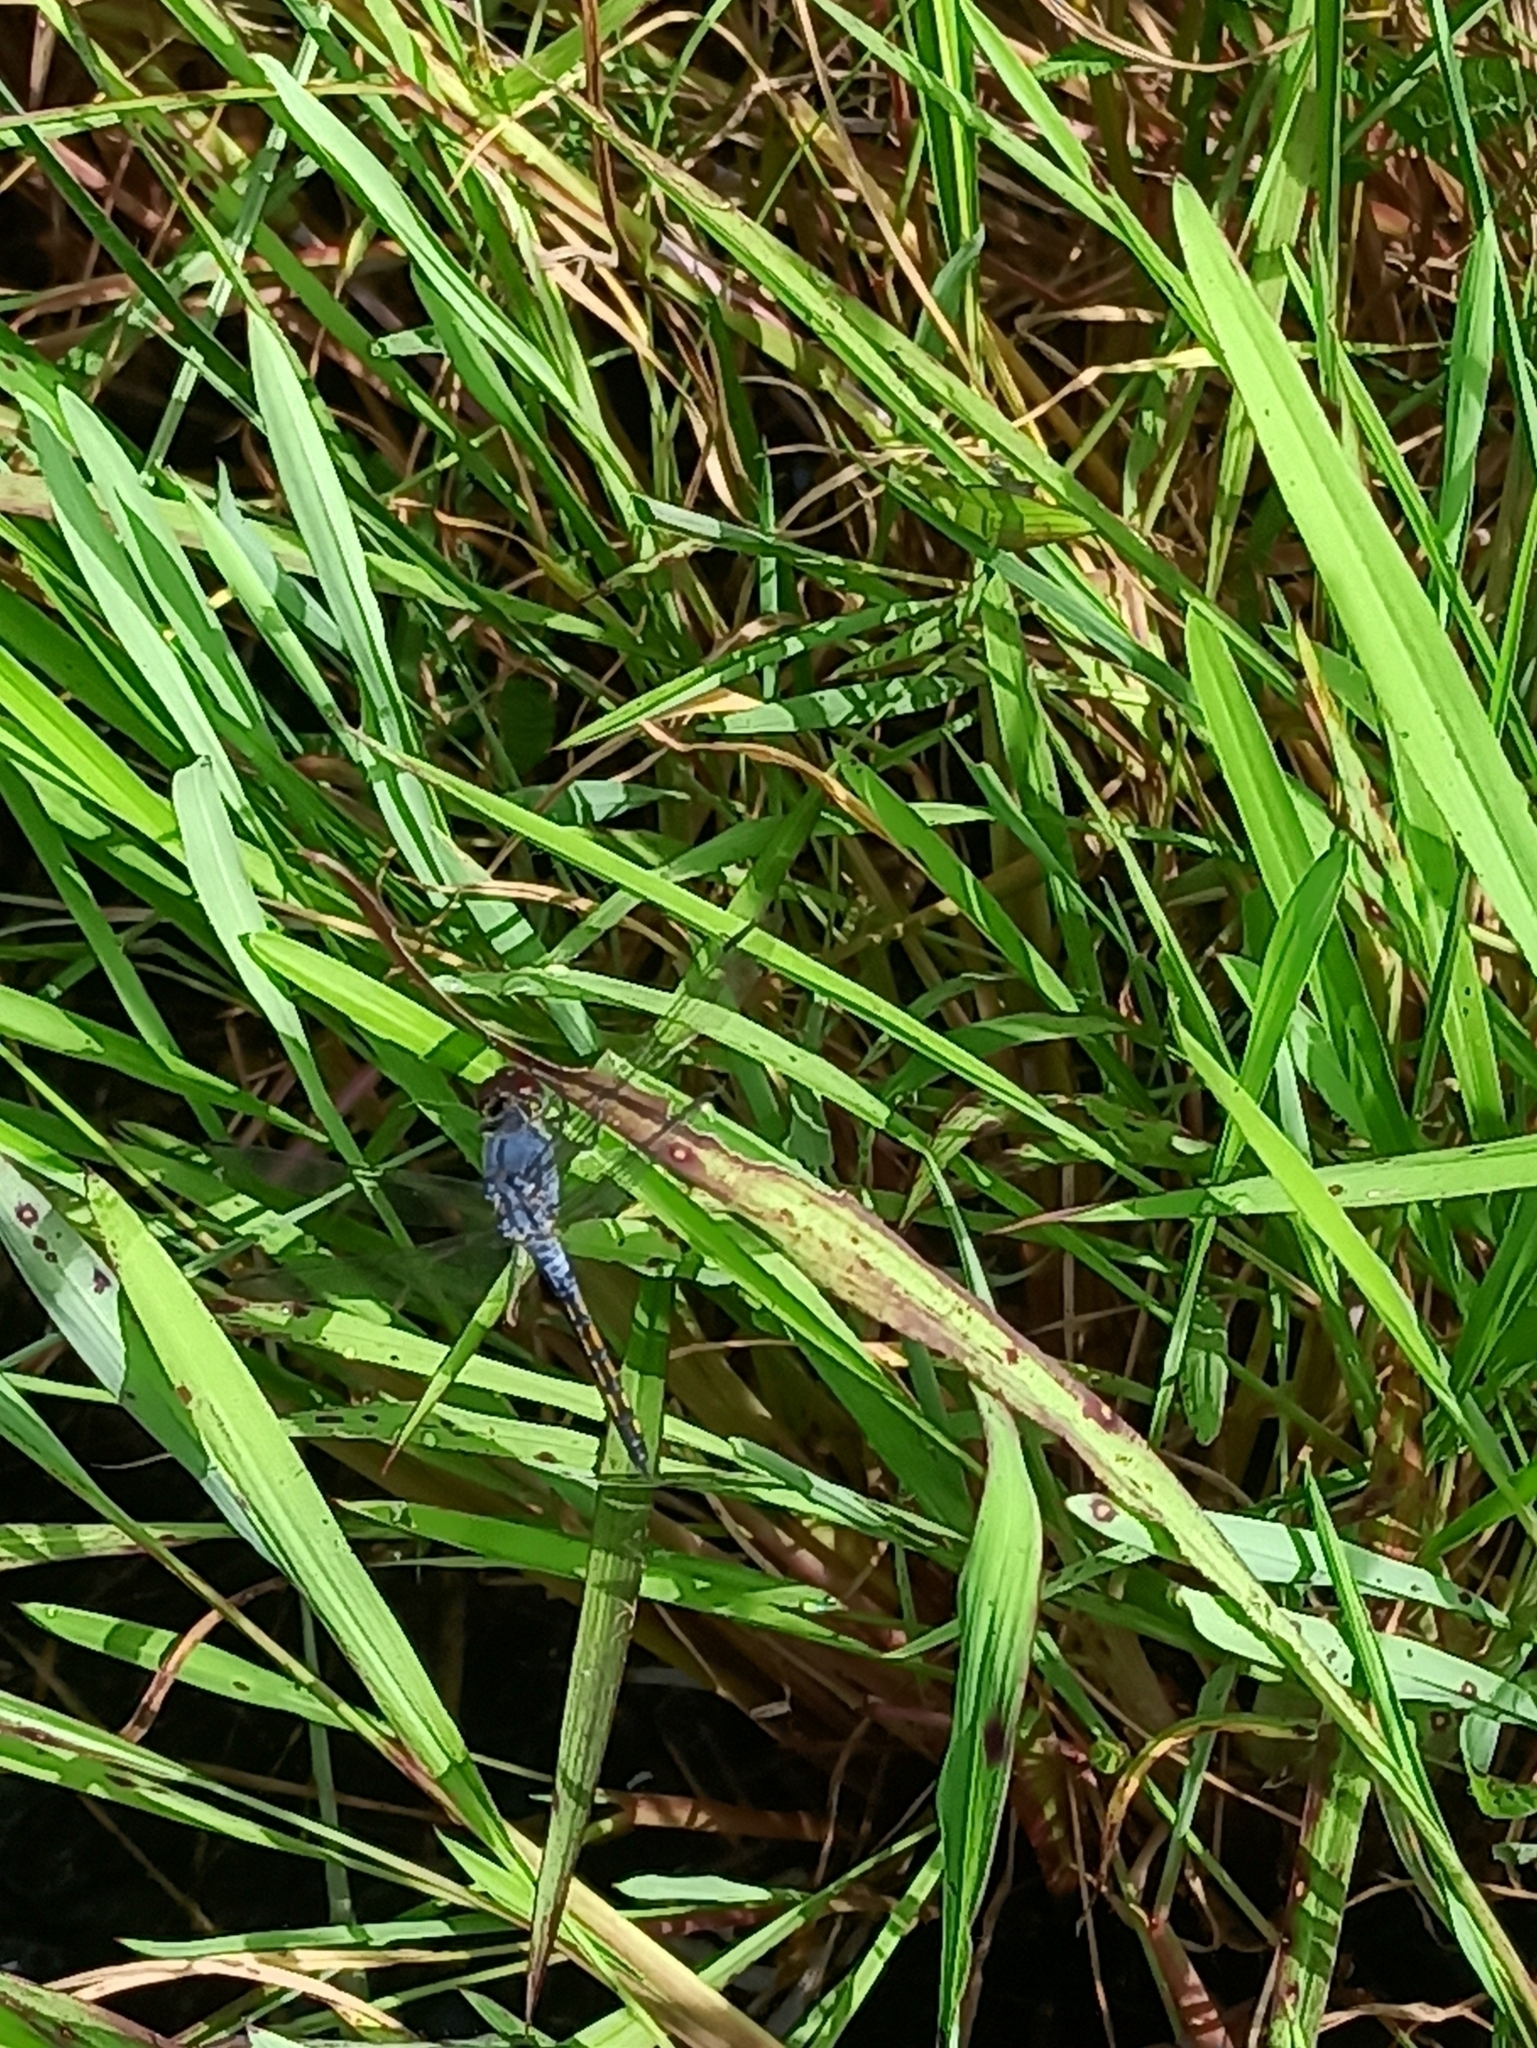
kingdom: Animalia
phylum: Arthropoda
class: Insecta
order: Odonata
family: Libellulidae
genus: Potamarcha
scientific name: Potamarcha congener
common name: Blue chaser
